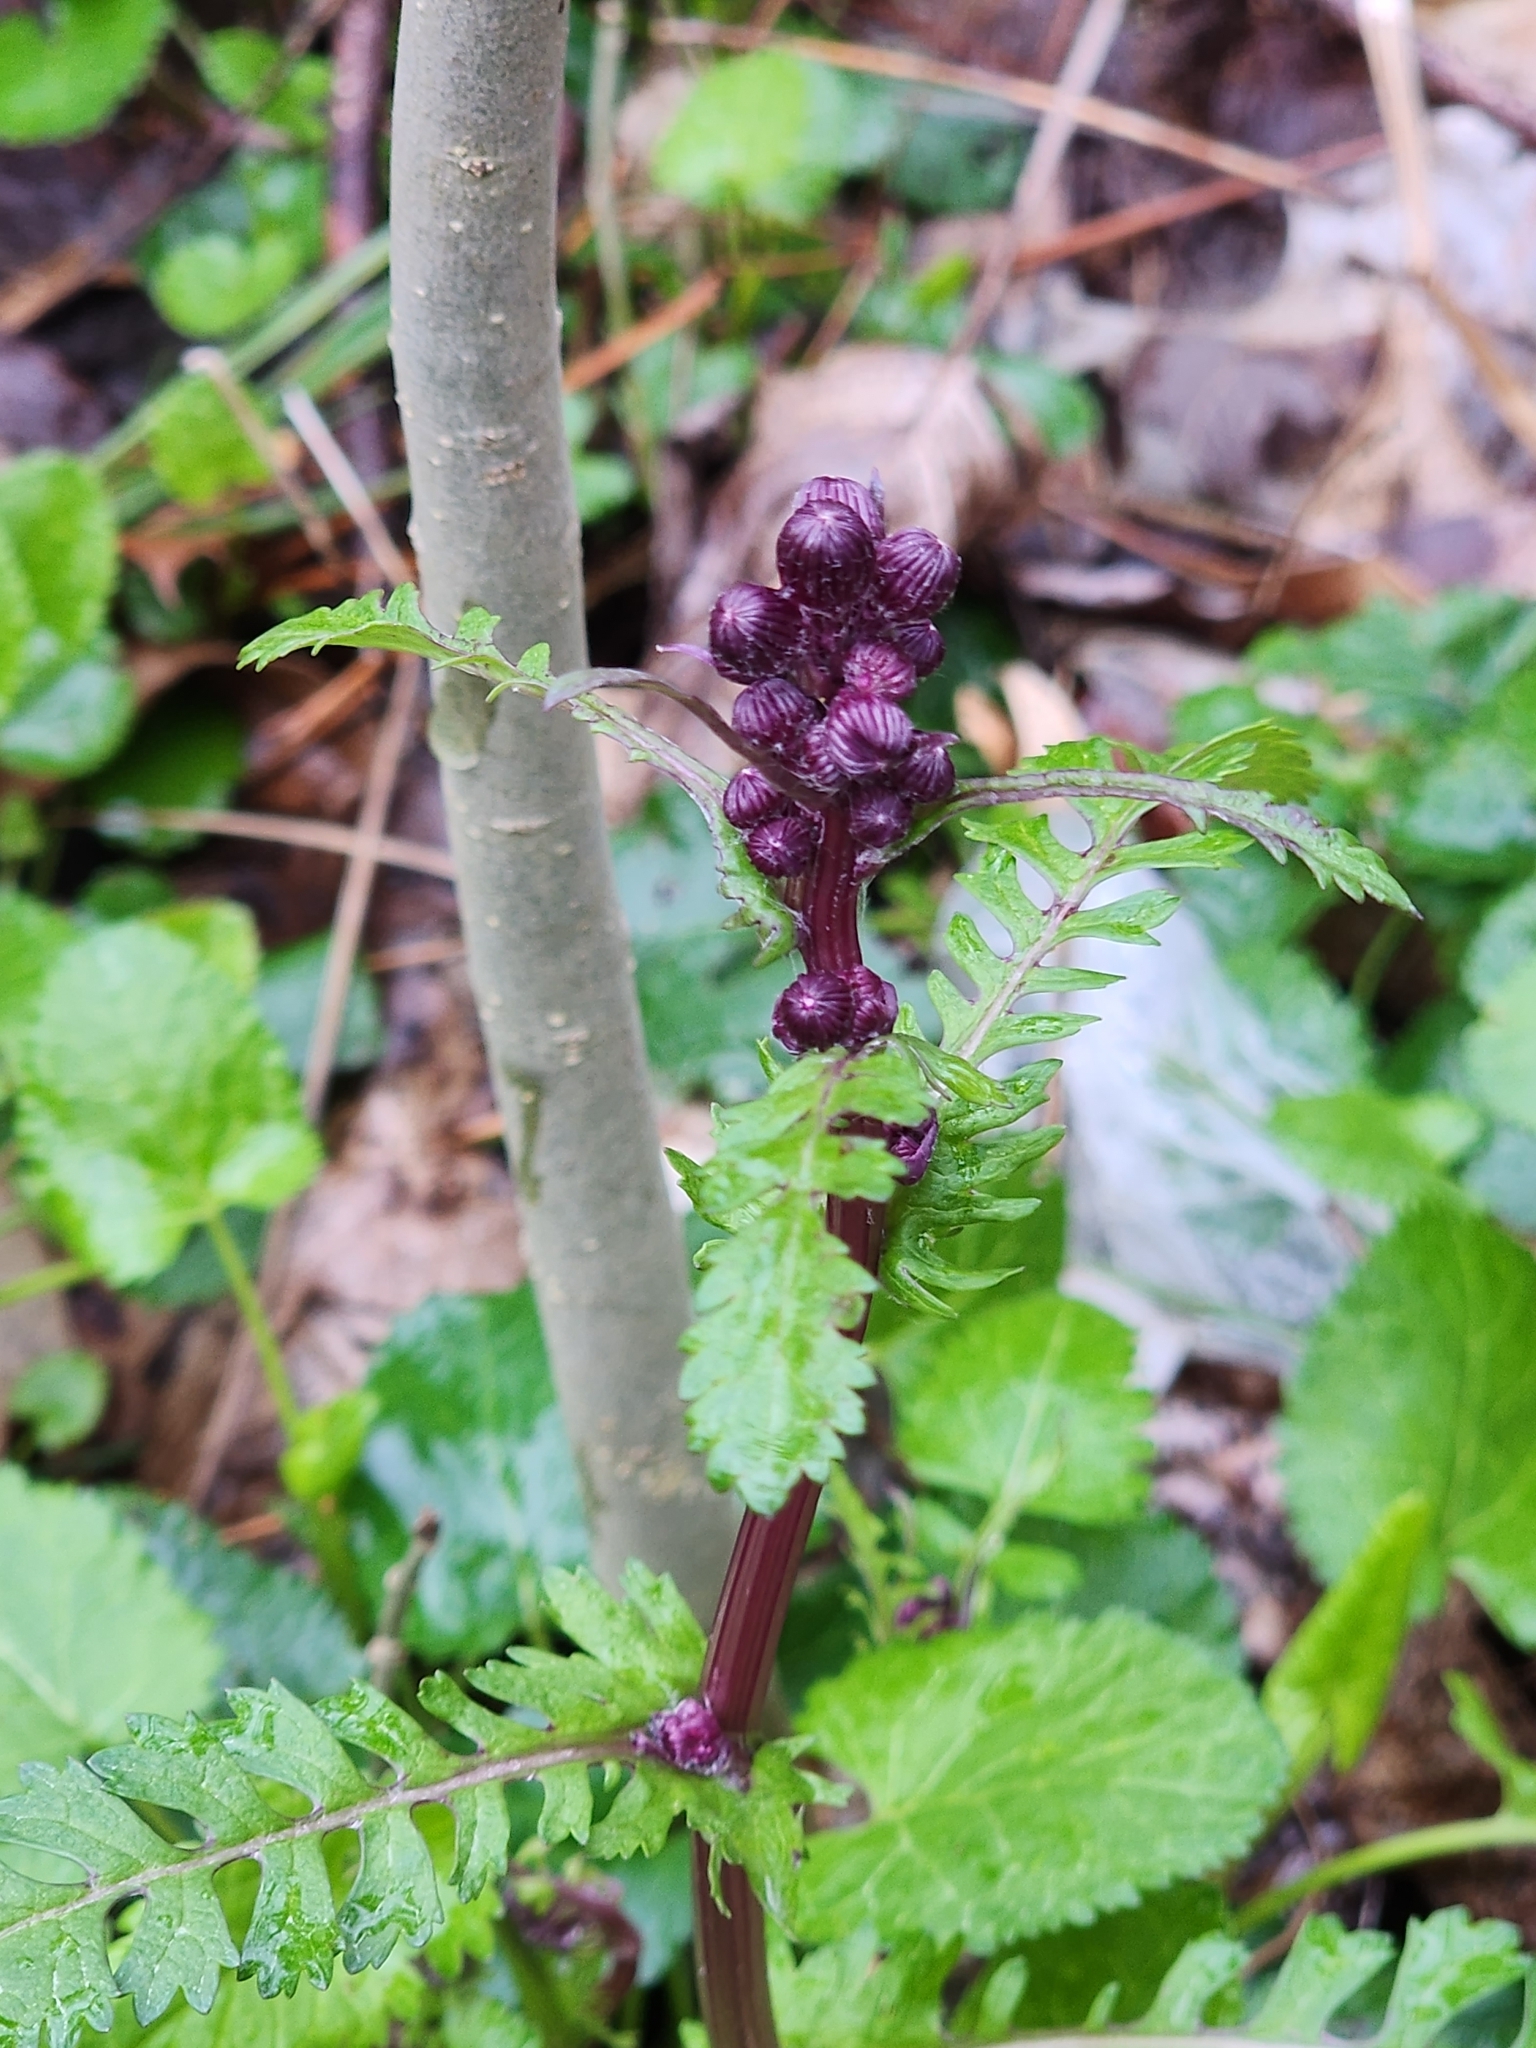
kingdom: Plantae
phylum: Tracheophyta
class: Magnoliopsida
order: Asterales
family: Asteraceae
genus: Packera
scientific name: Packera aurea
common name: Golden groundsel
